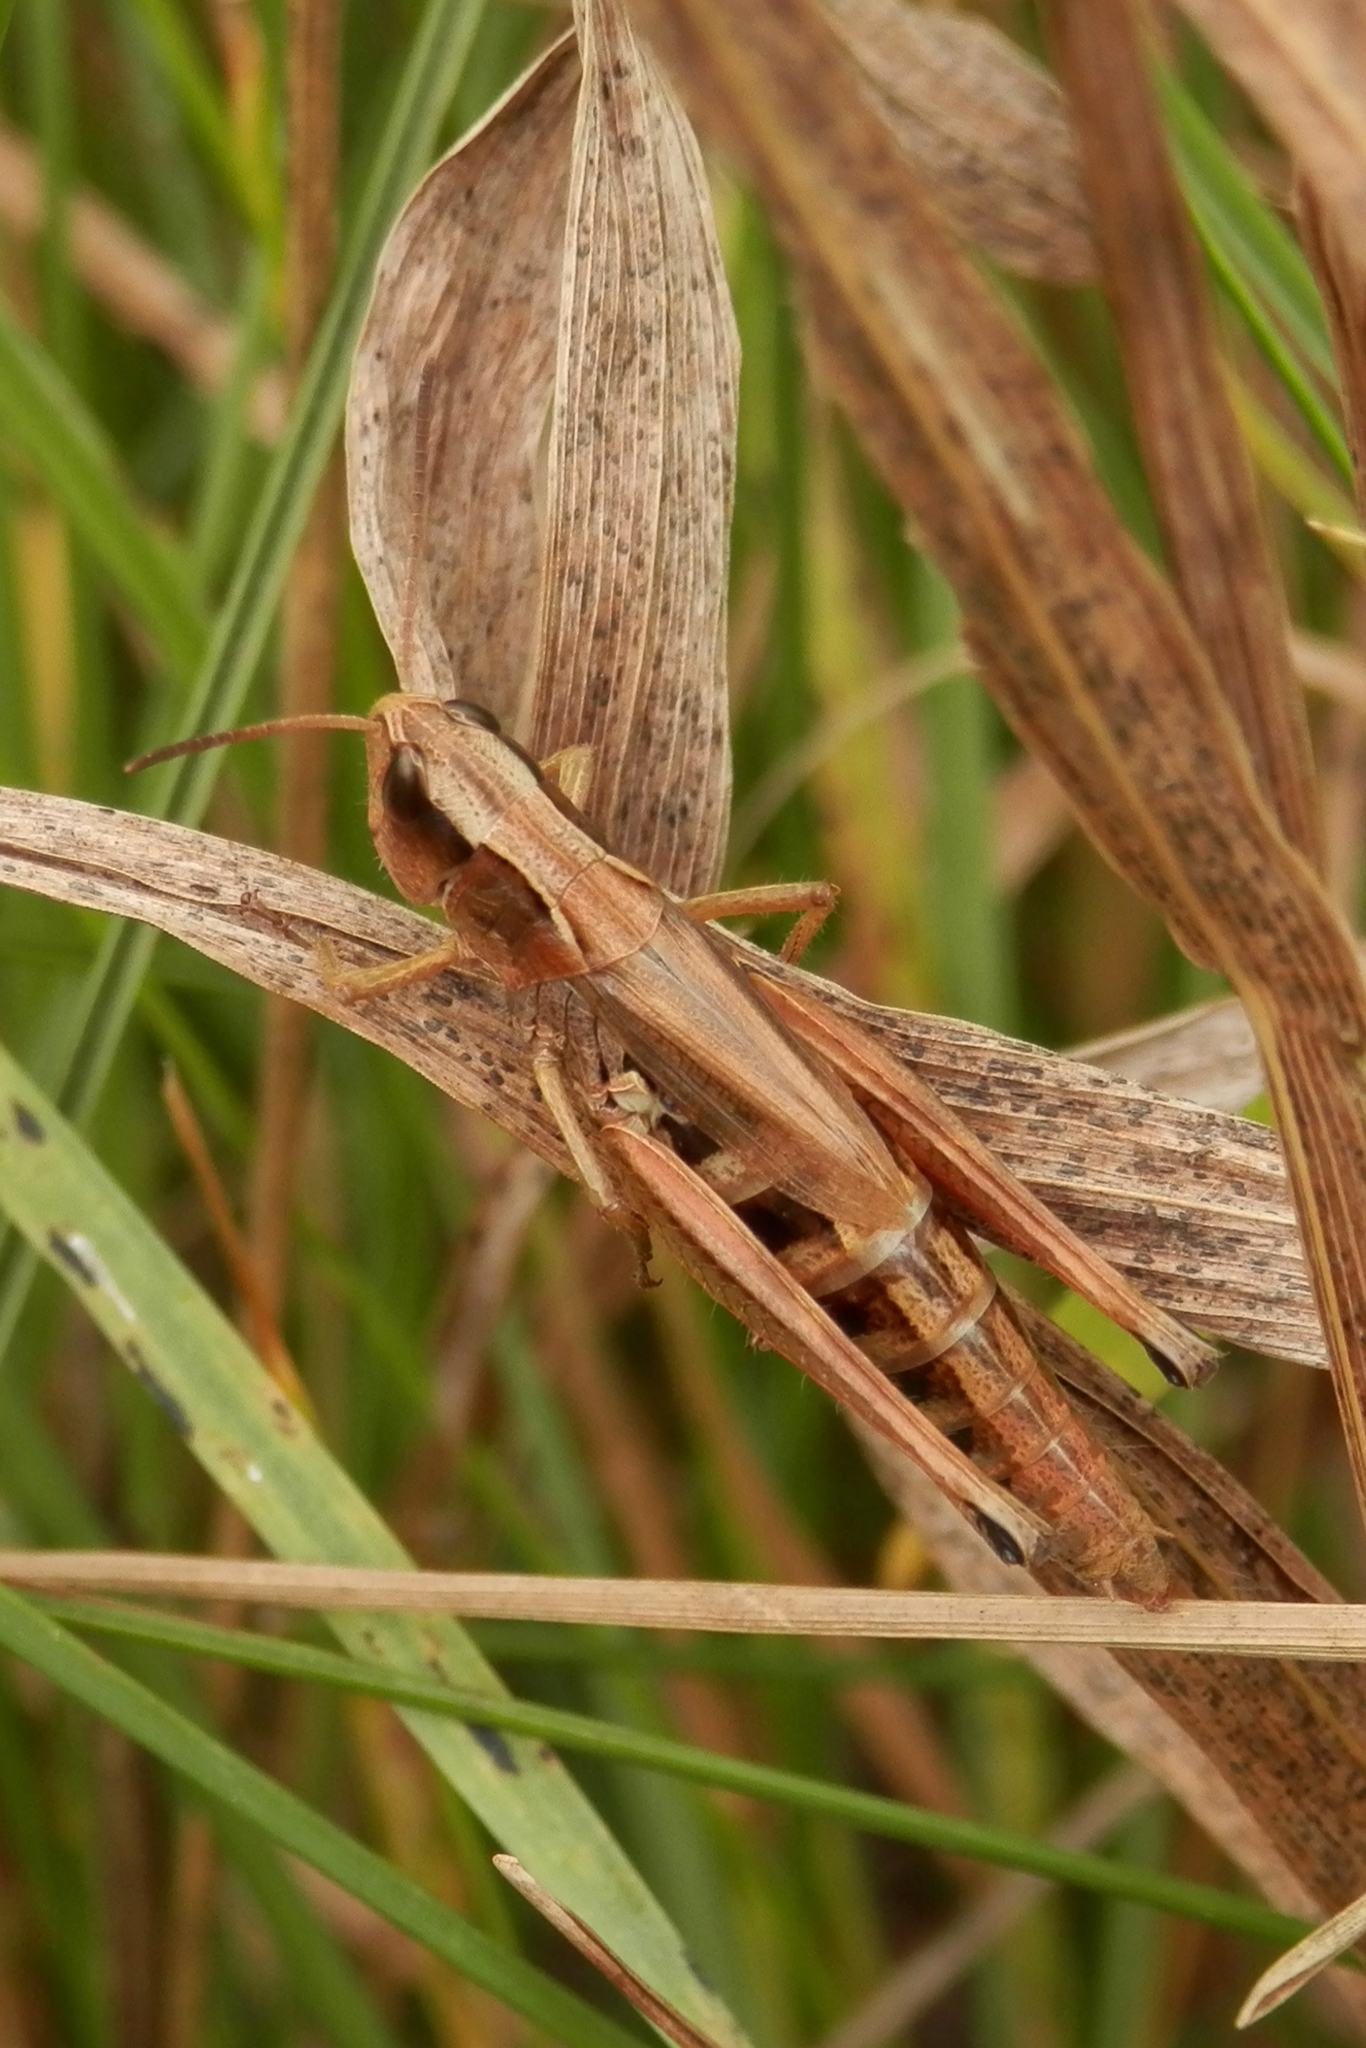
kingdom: Animalia
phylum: Arthropoda
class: Insecta
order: Orthoptera
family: Acrididae
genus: Pseudochorthippus
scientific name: Pseudochorthippus curtipennis
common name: Marsh meadow grasshopper
